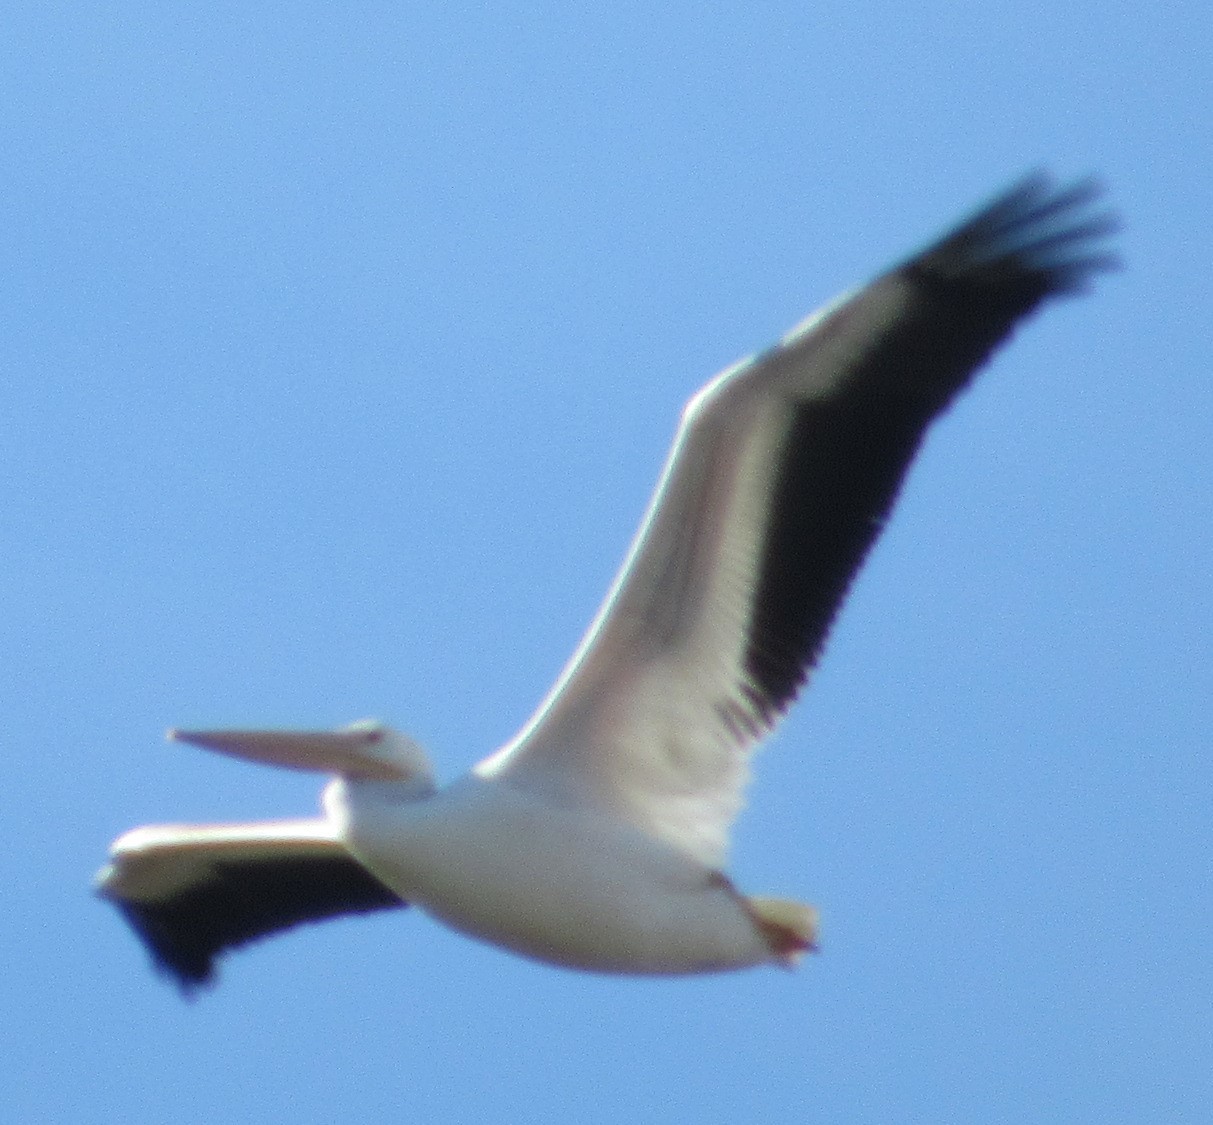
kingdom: Animalia
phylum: Chordata
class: Aves
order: Pelecaniformes
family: Pelecanidae
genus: Pelecanus
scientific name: Pelecanus erythrorhynchos
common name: American white pelican
